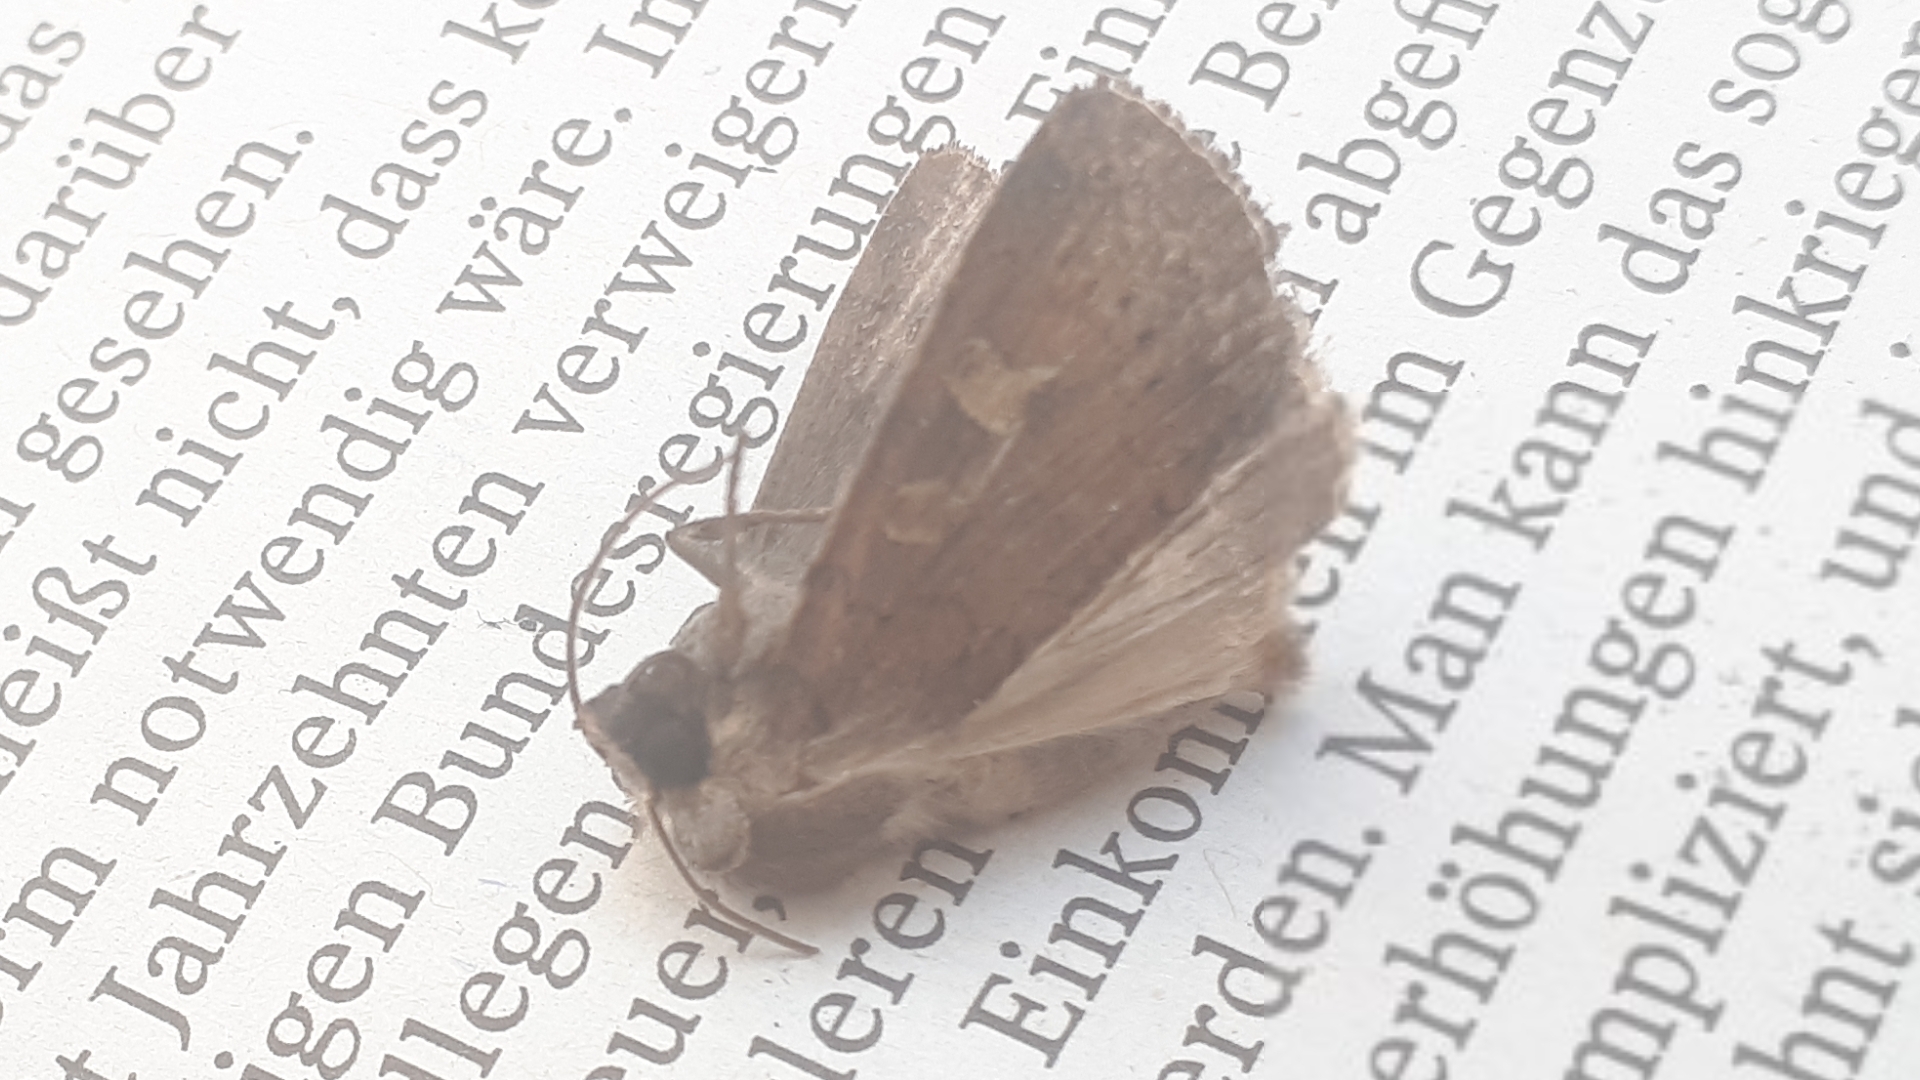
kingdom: Animalia
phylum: Arthropoda
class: Insecta
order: Lepidoptera
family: Noctuidae
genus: Xestia
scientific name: Xestia xanthographa
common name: Square-spot rustic
